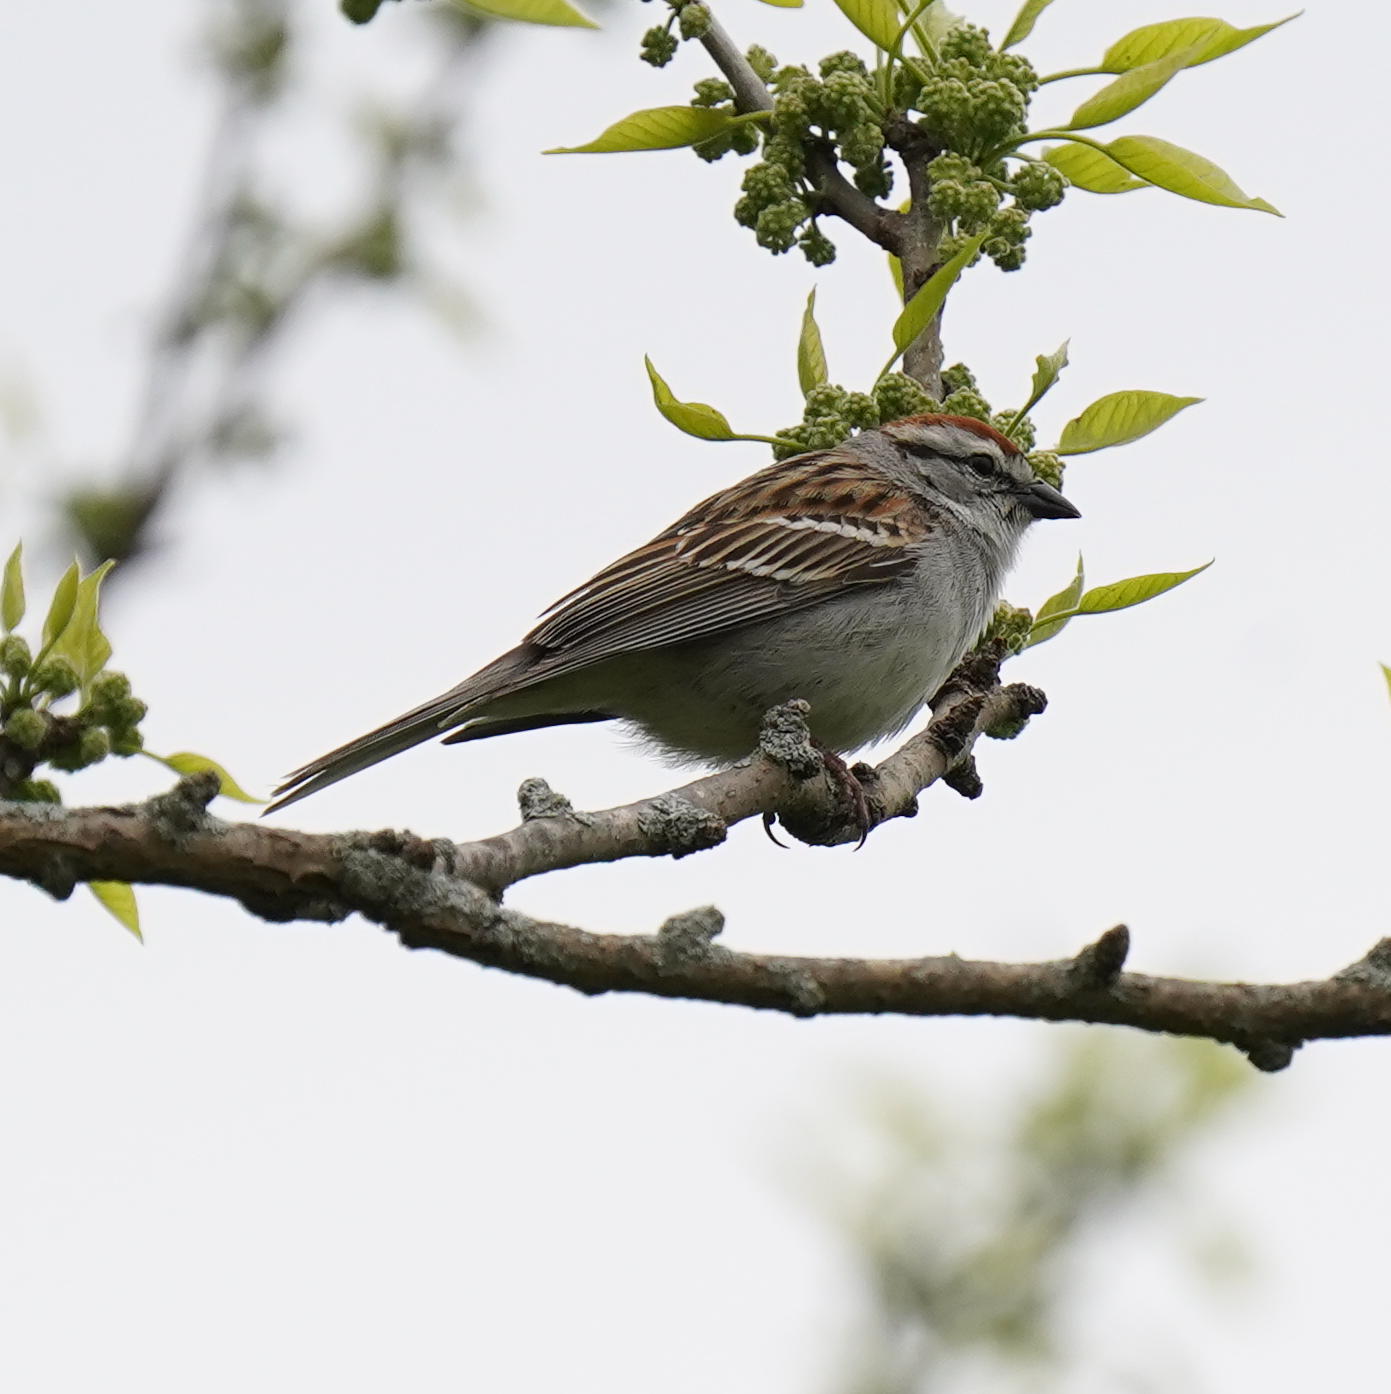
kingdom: Animalia
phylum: Chordata
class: Aves
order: Passeriformes
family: Passerellidae
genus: Spizella
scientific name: Spizella passerina
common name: Chipping sparrow
